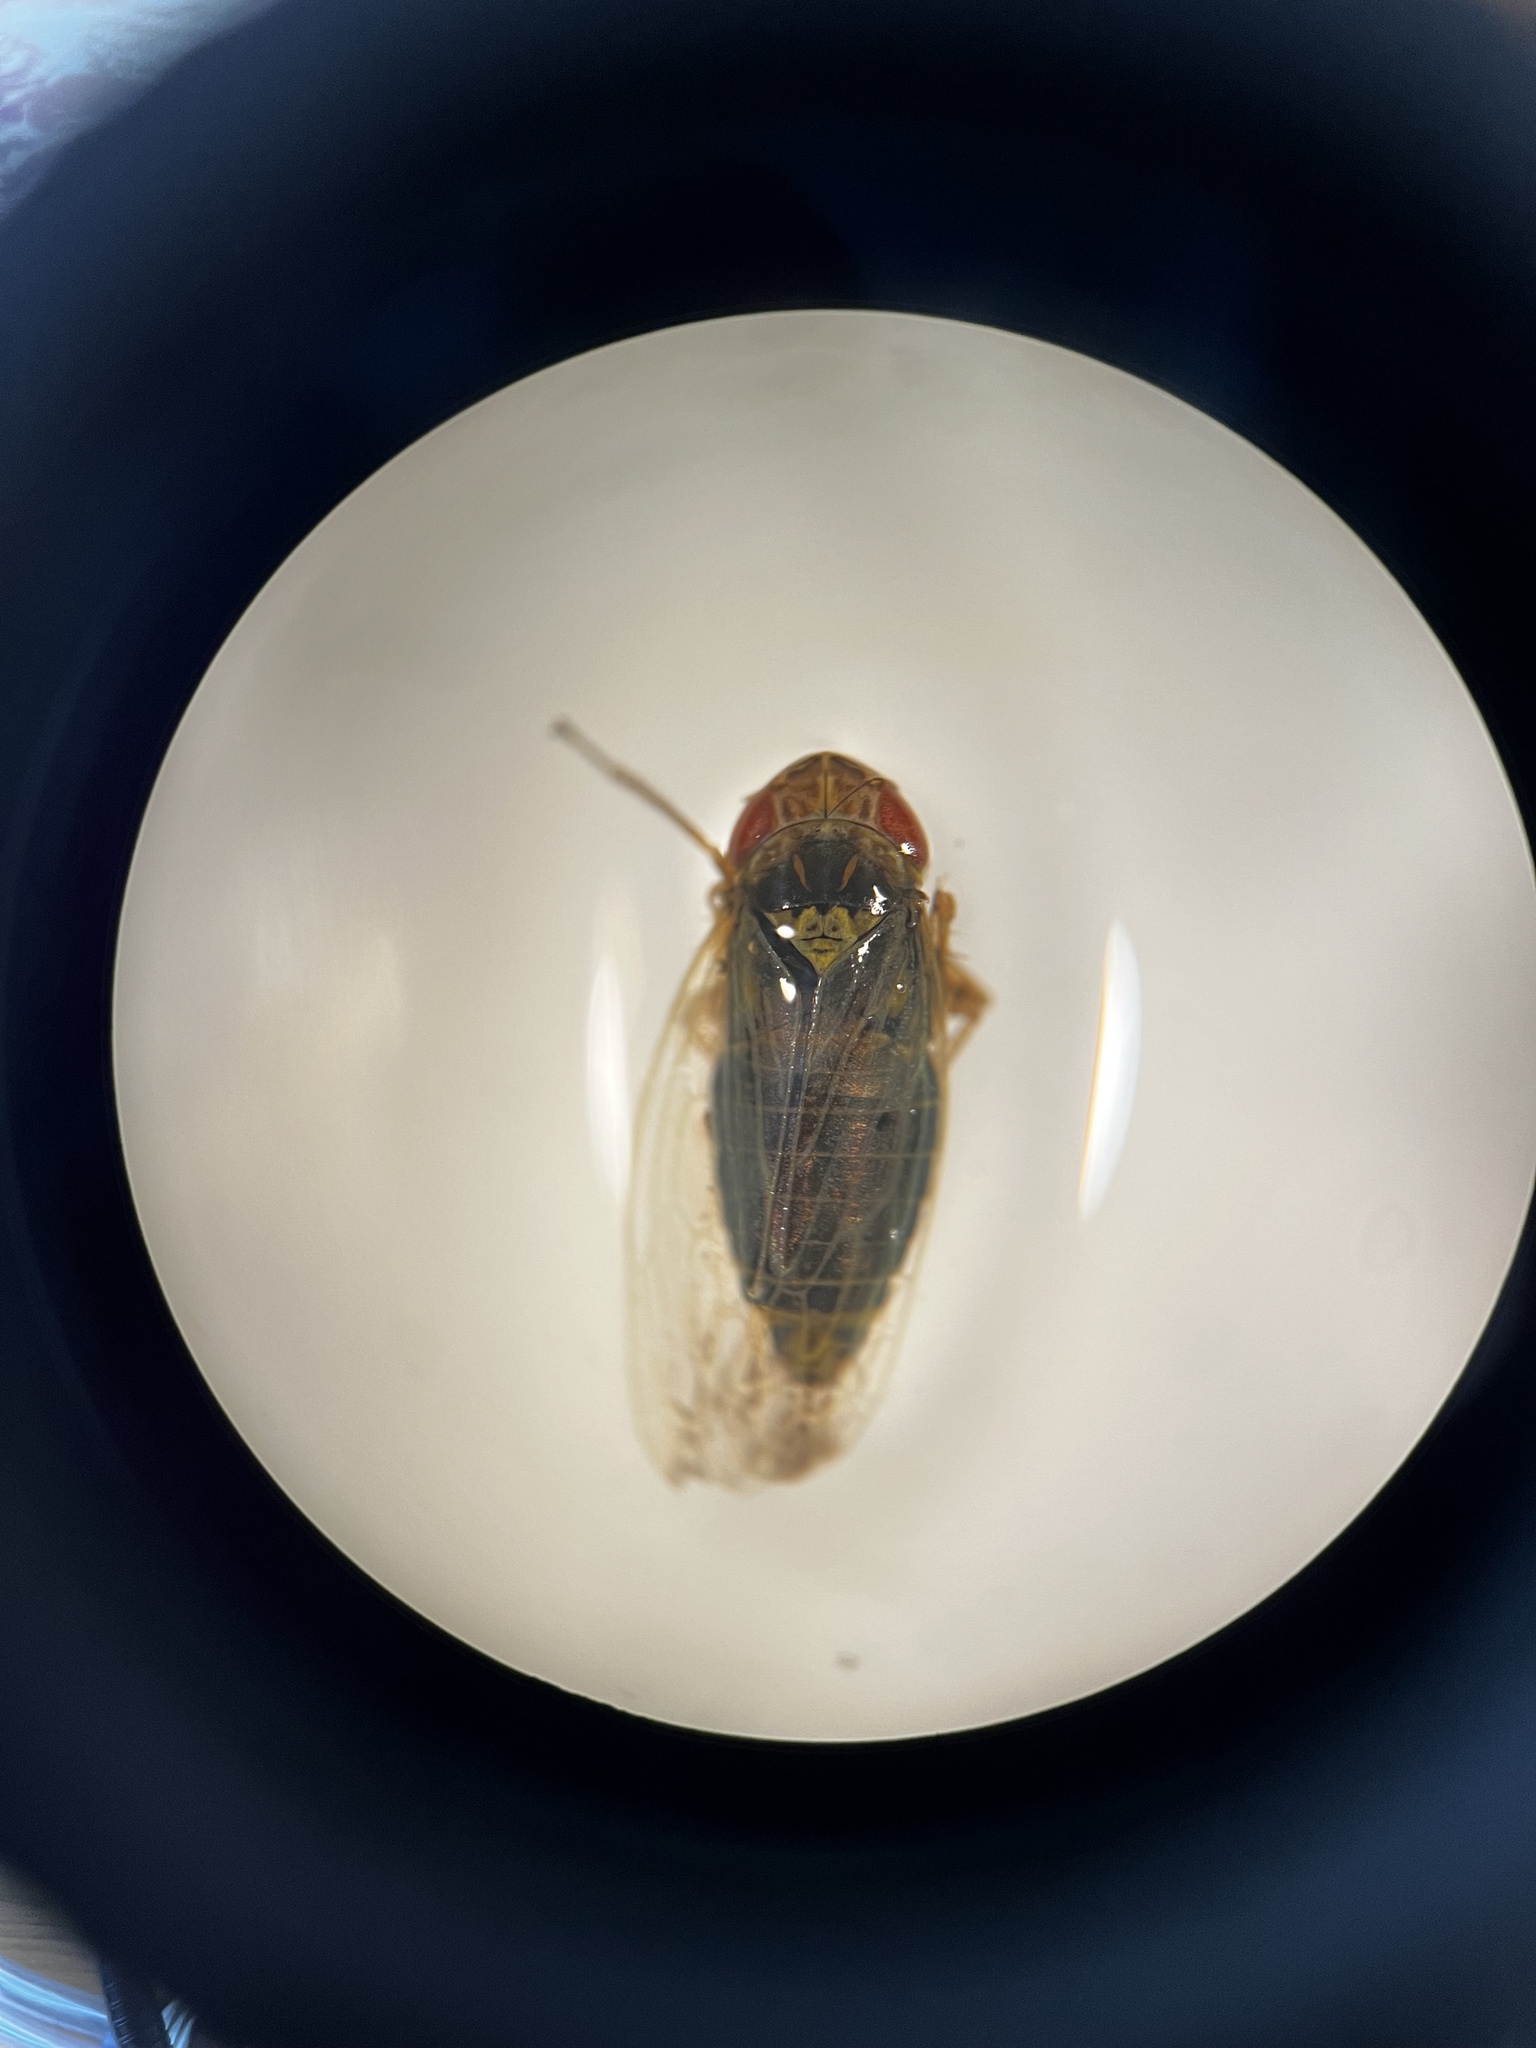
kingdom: Animalia
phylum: Arthropoda
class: Insecta
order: Hemiptera
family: Cicadellidae
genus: Psammotettix
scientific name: Psammotettix confinis
